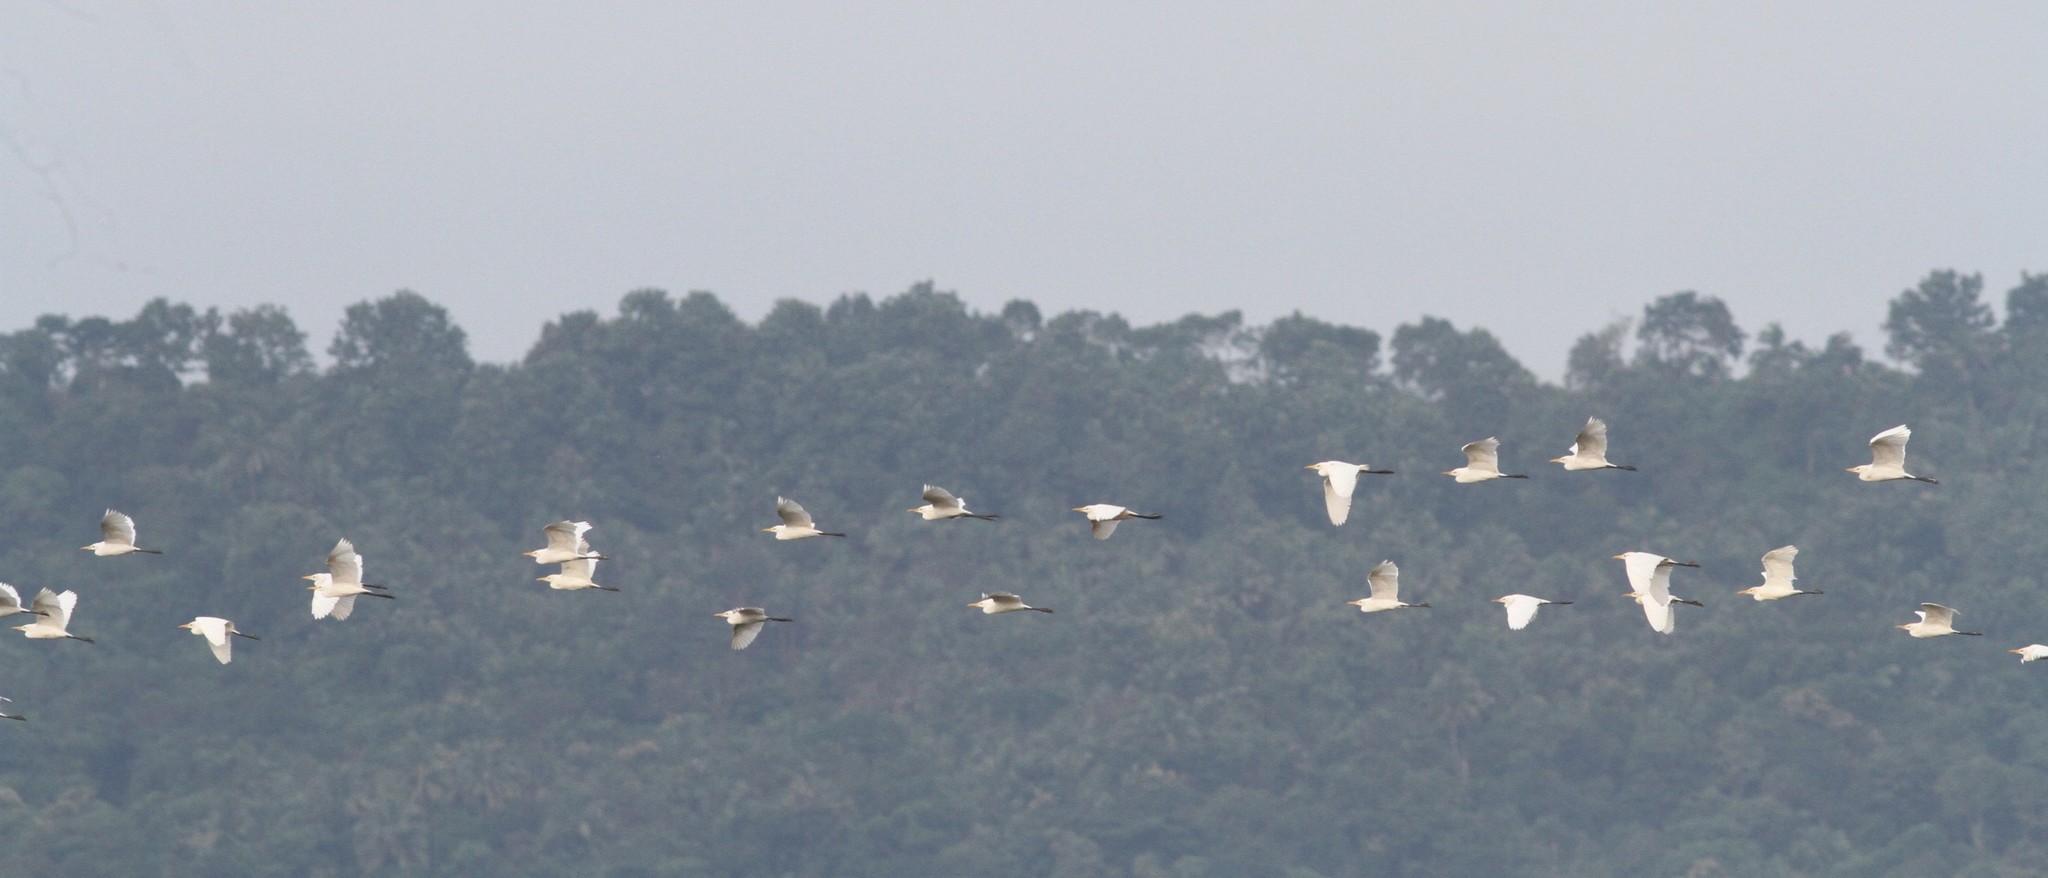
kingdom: Animalia
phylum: Chordata
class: Aves
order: Pelecaniformes
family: Ardeidae
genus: Bubulcus
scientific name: Bubulcus coromandus
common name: Eastern cattle egret
